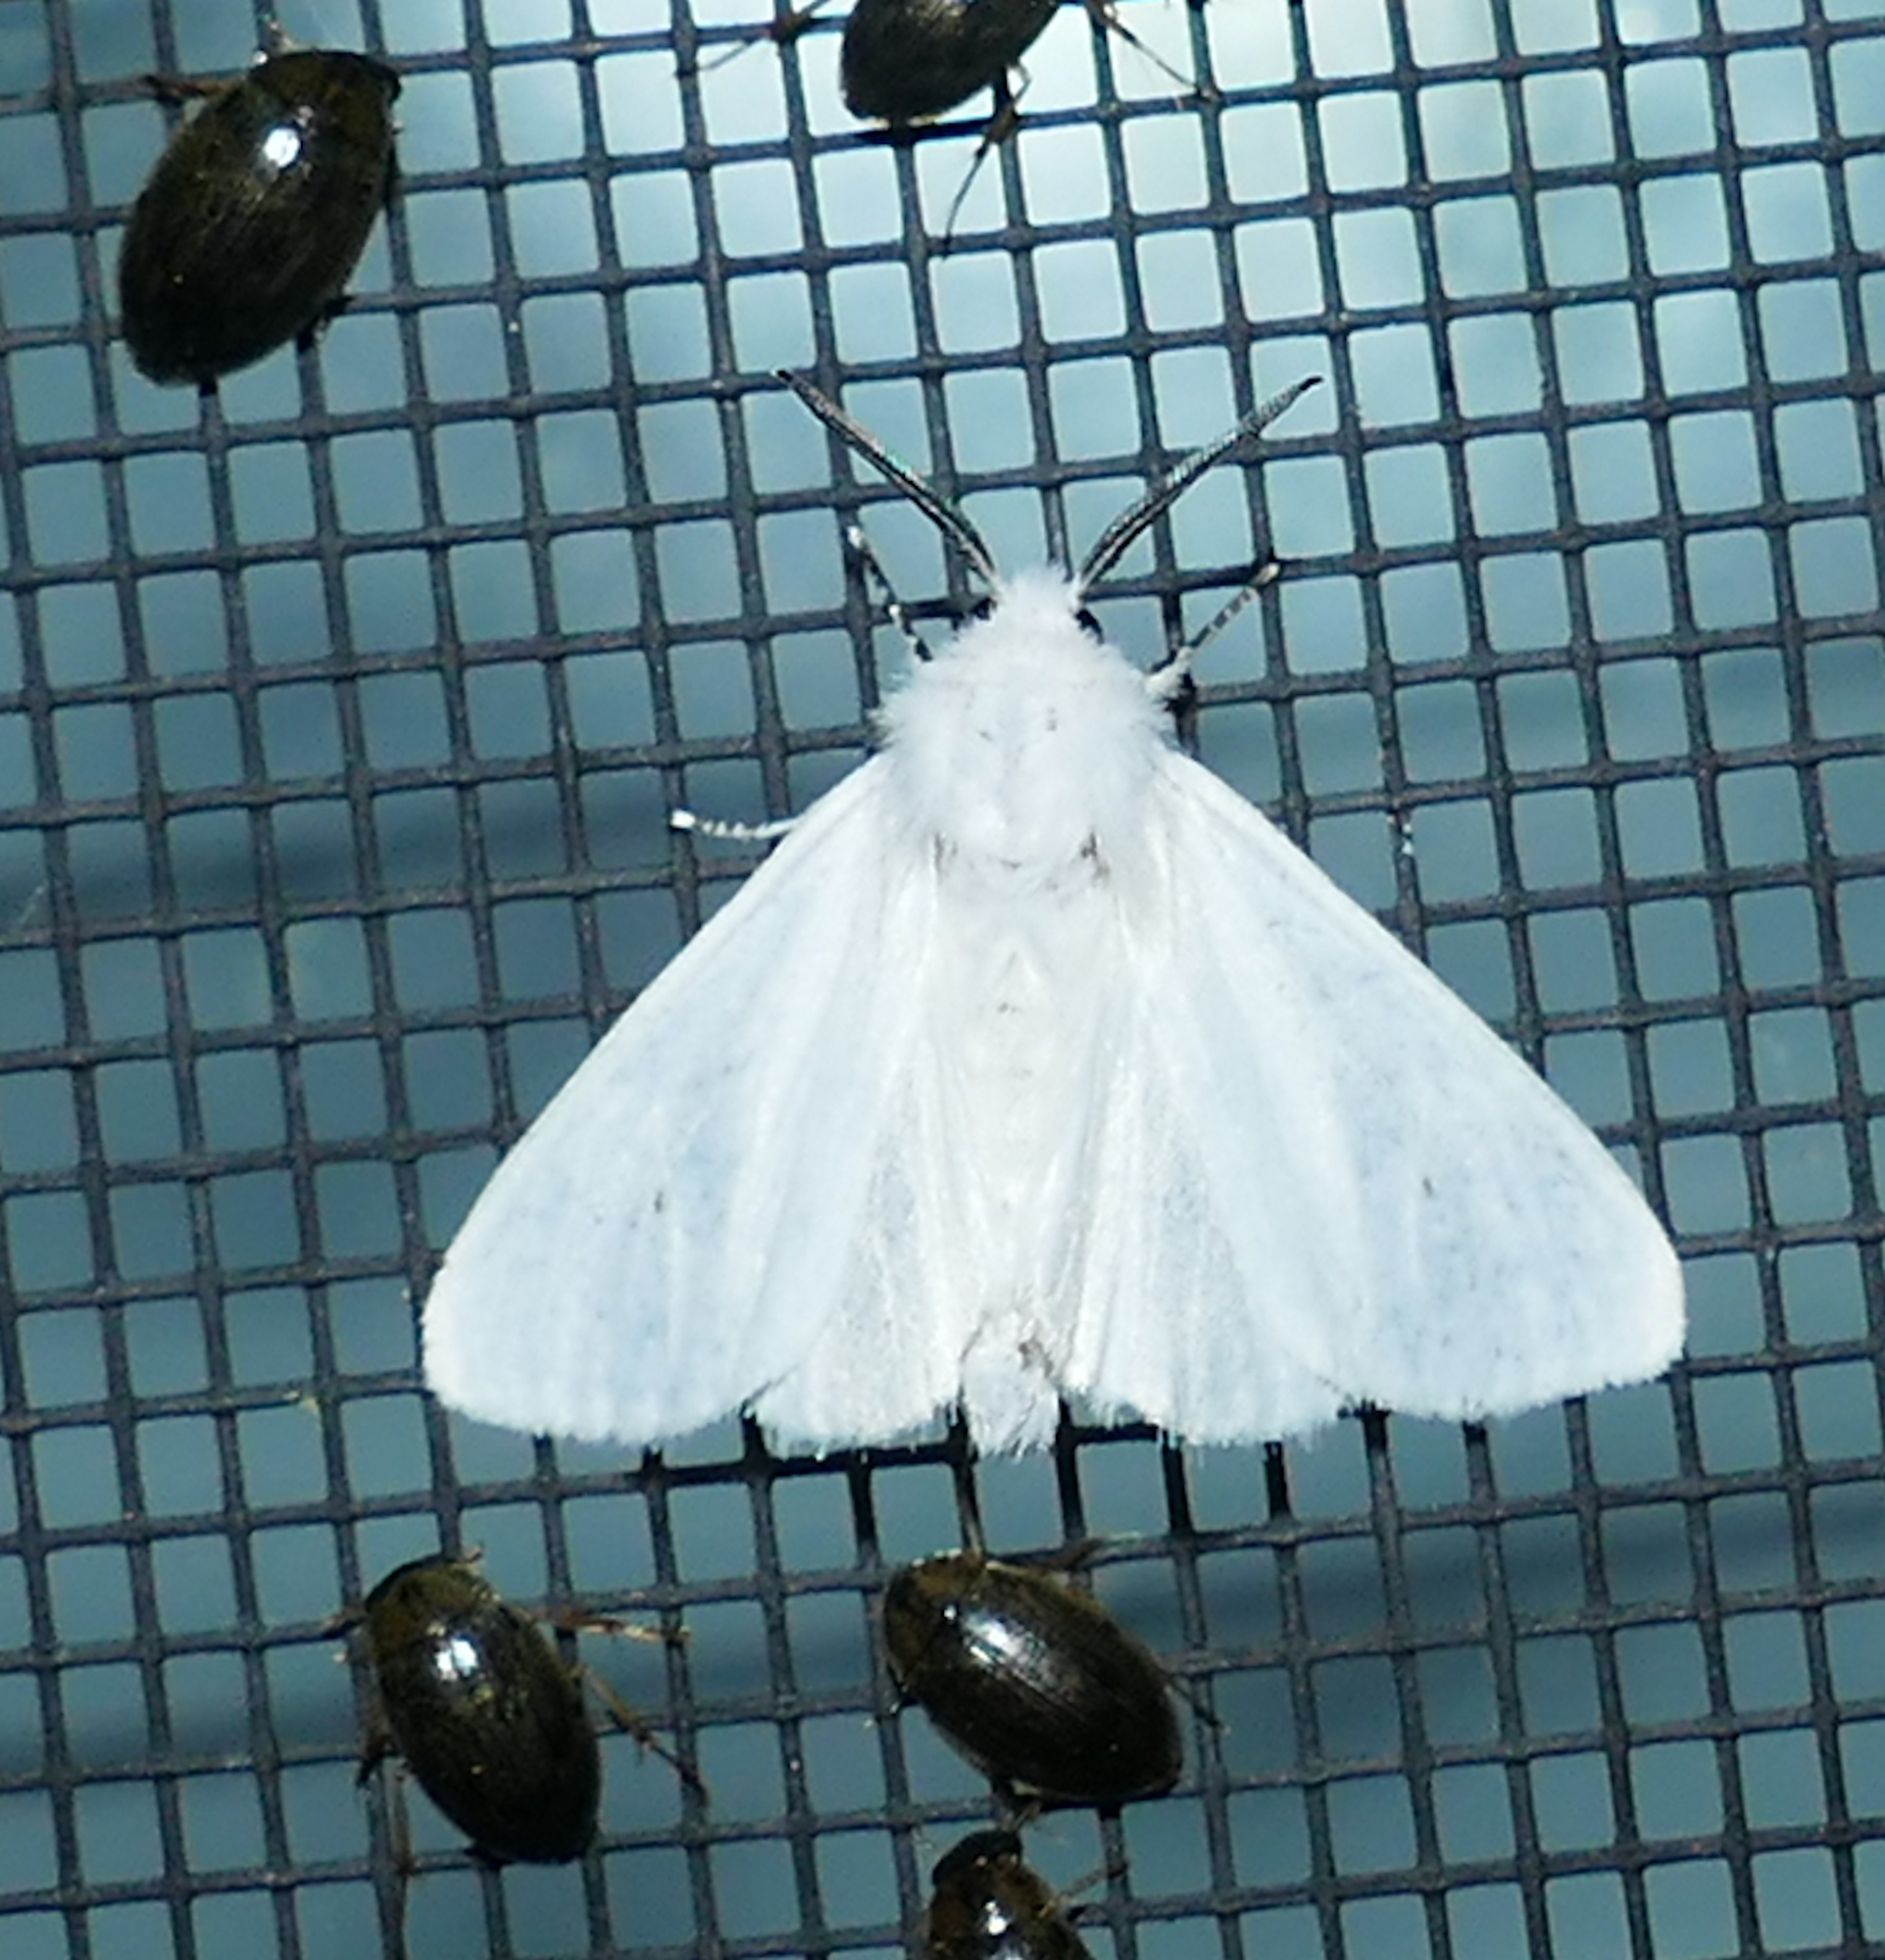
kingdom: Animalia
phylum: Arthropoda
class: Insecta
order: Lepidoptera
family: Erebidae
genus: Hyphantria
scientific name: Hyphantria cunea
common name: American white moth
